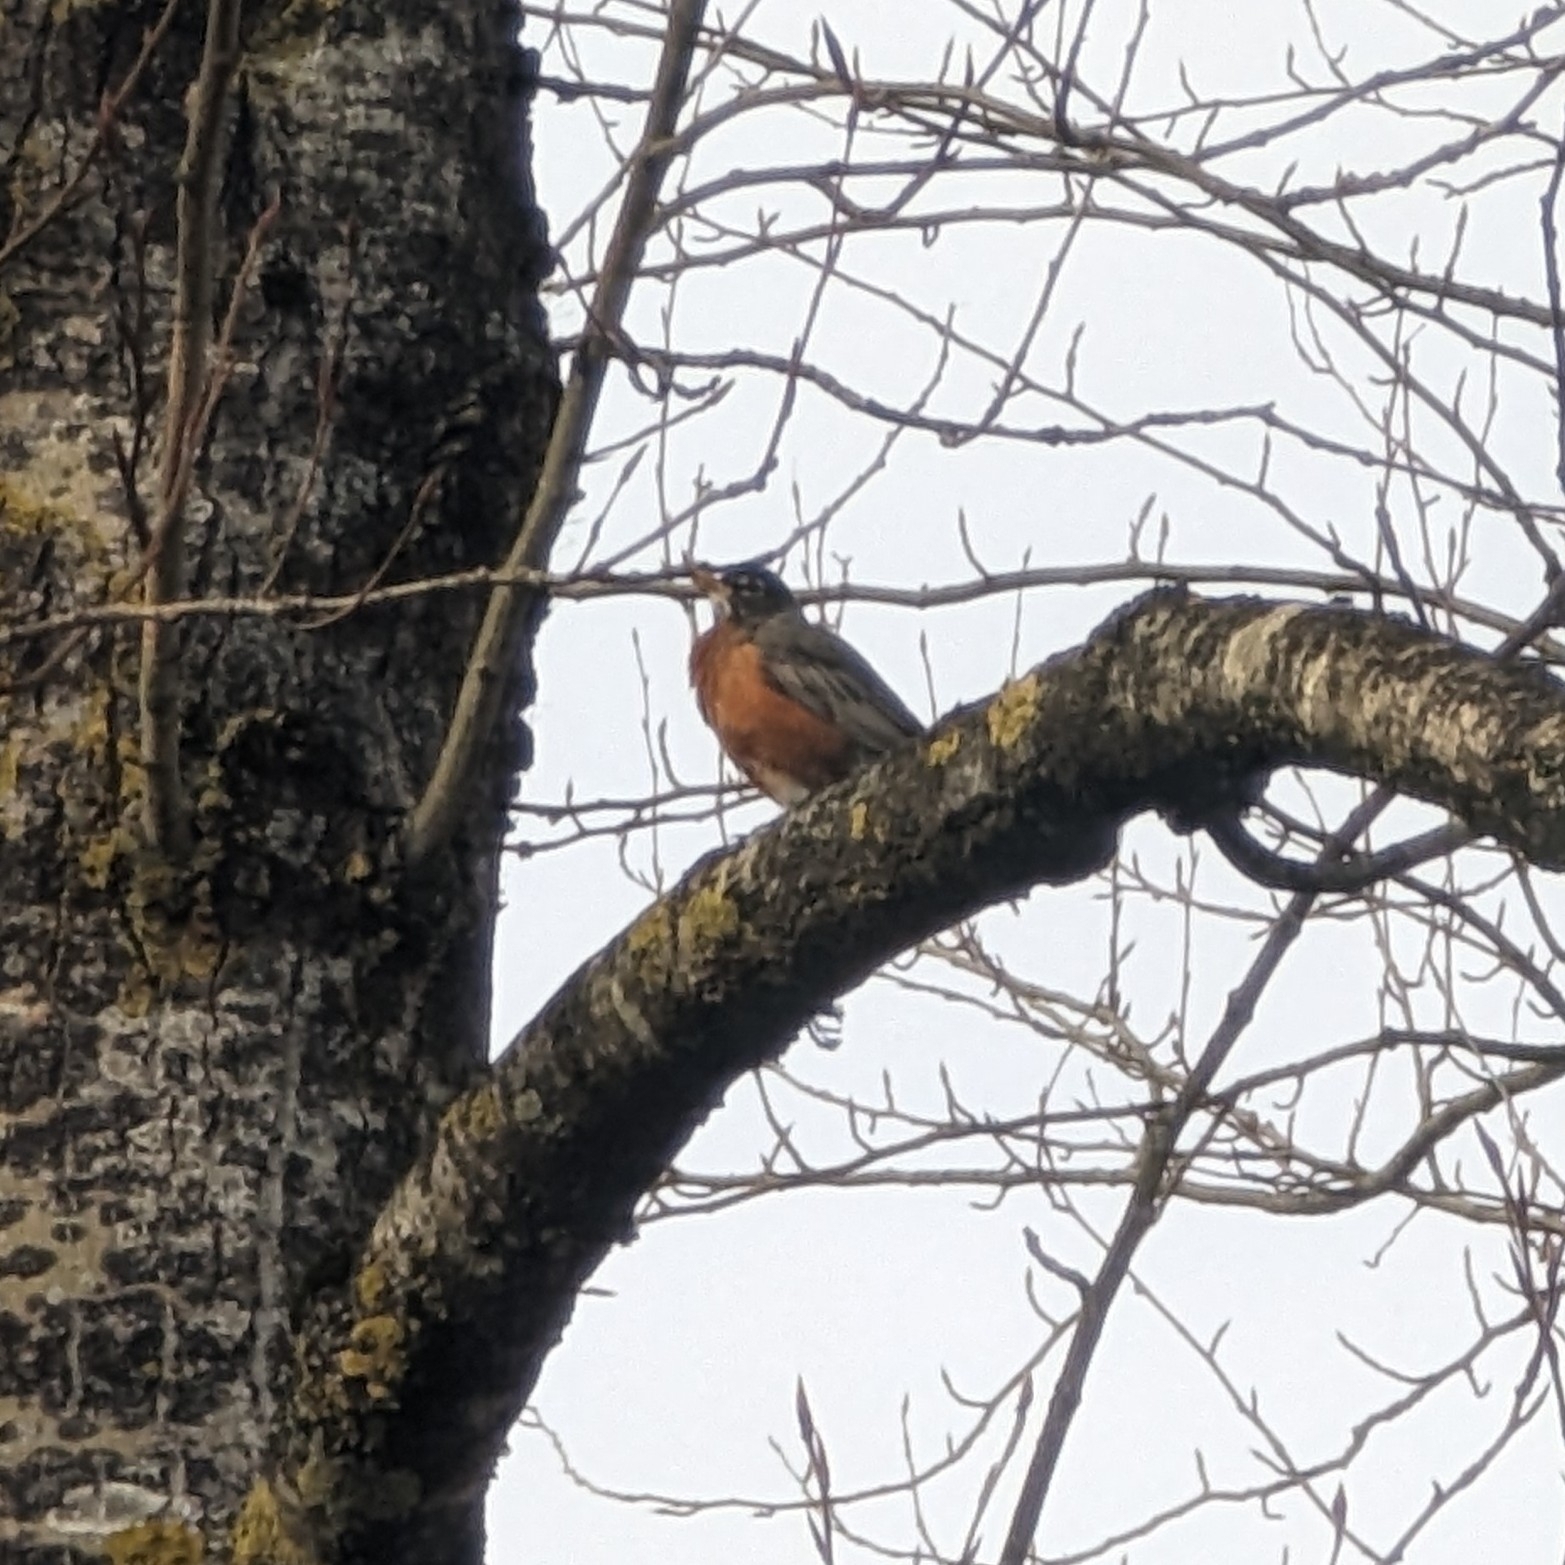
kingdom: Animalia
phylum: Chordata
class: Aves
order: Passeriformes
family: Turdidae
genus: Turdus
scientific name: Turdus migratorius
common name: American robin
